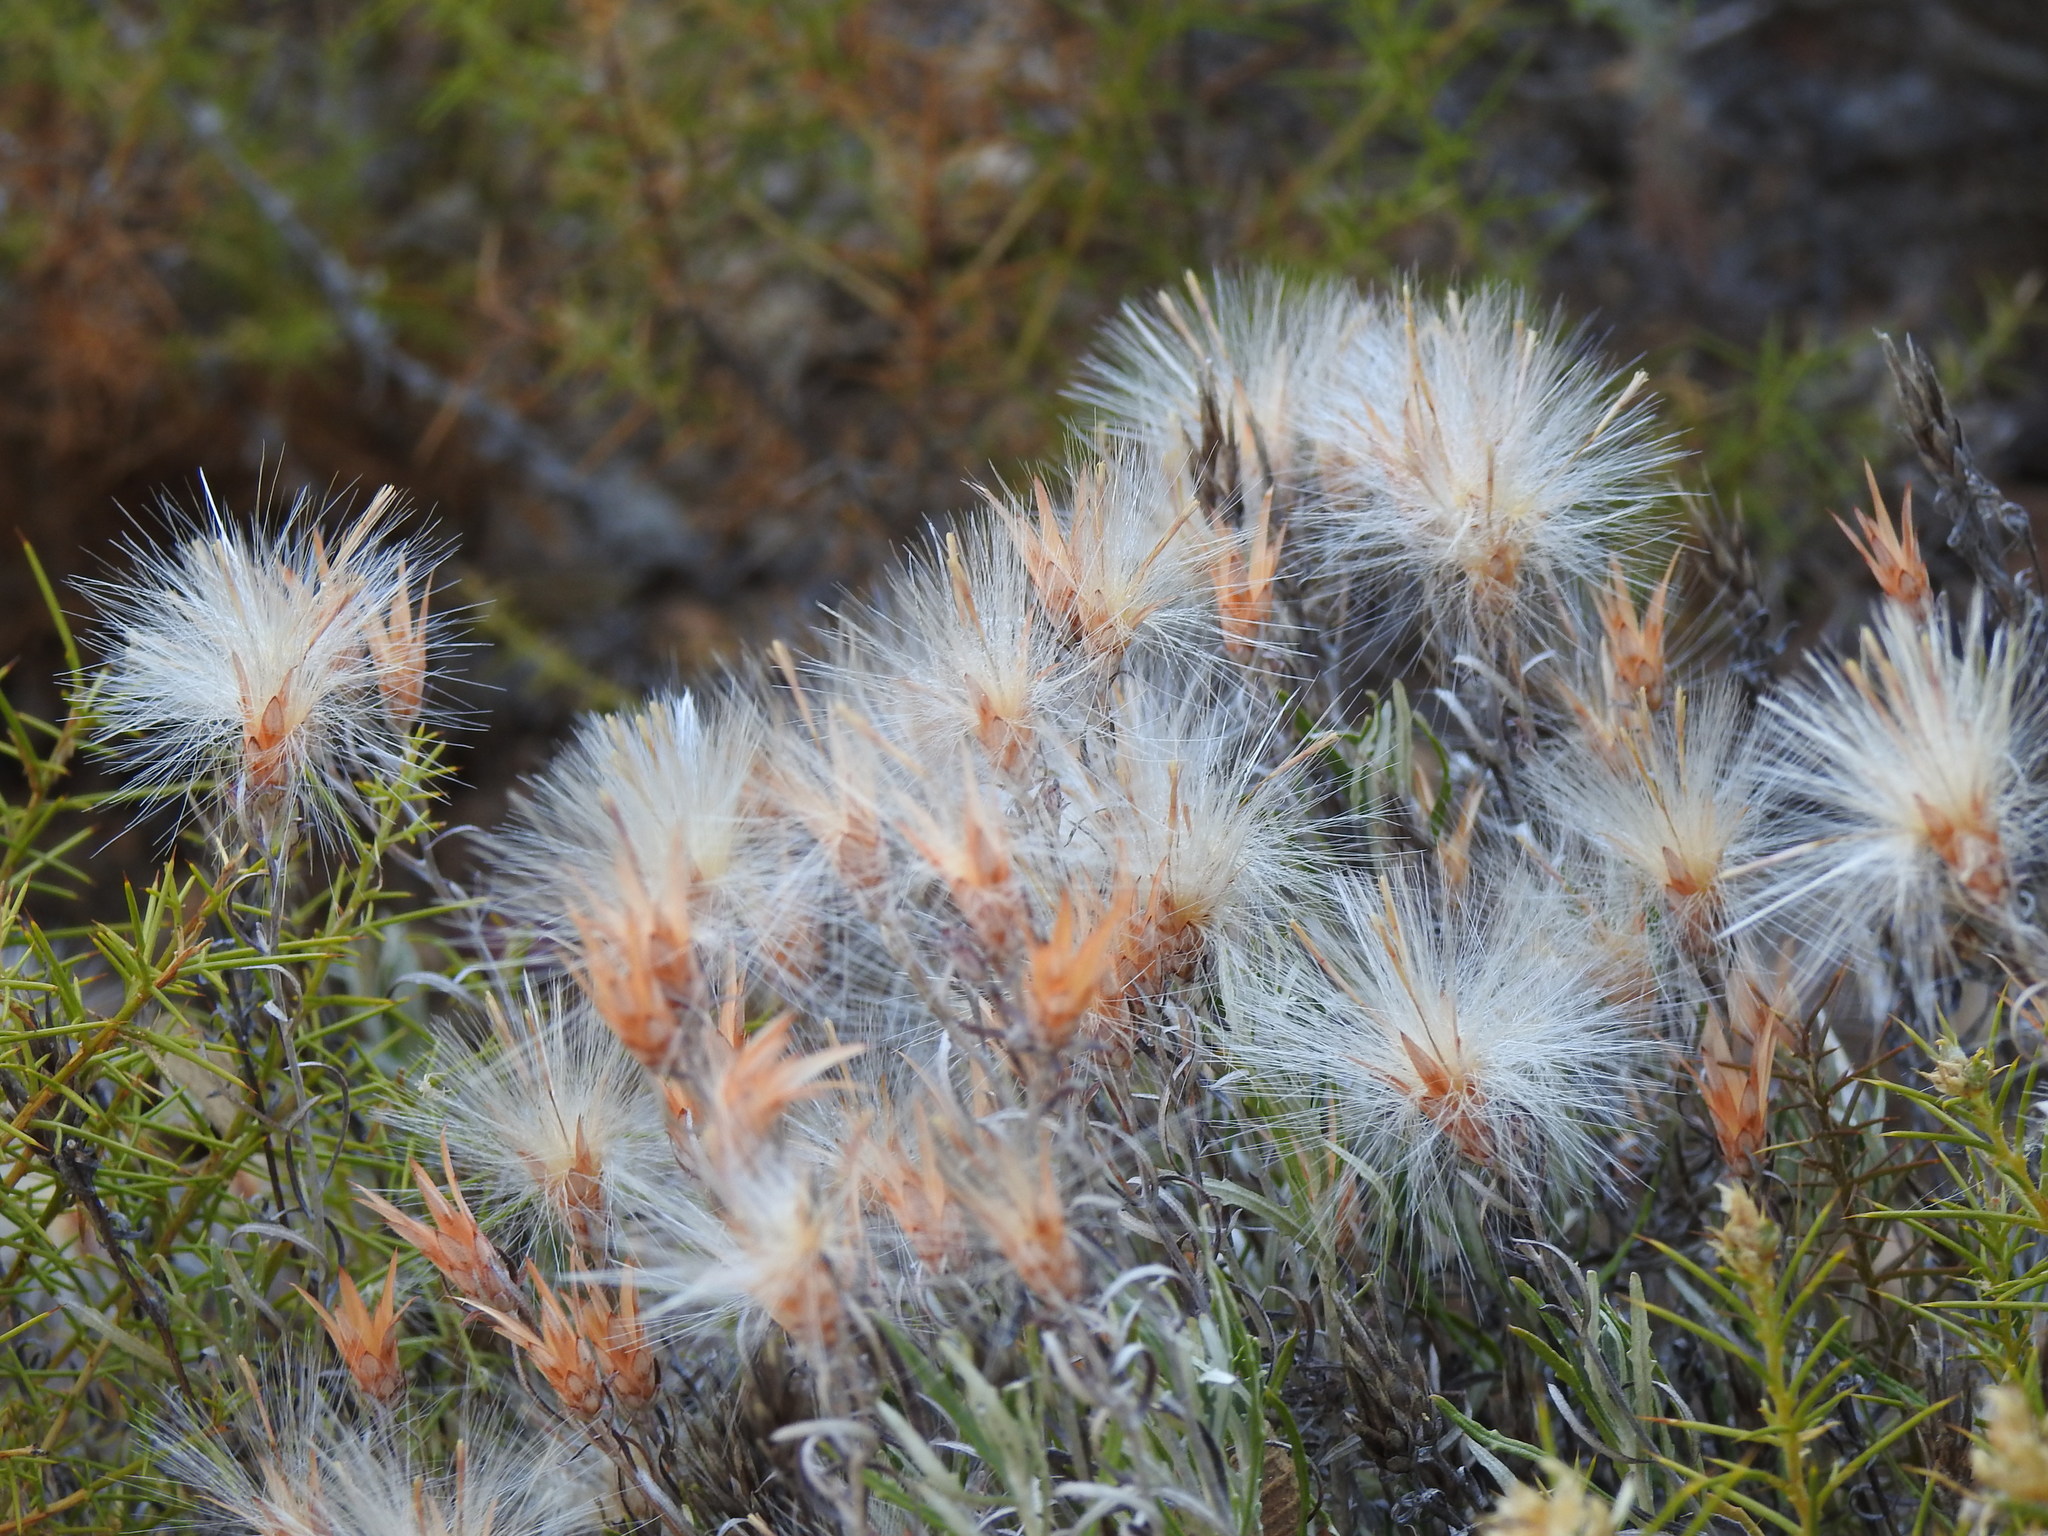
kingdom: Plantae
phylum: Tracheophyta
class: Magnoliopsida
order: Asterales
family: Asteraceae
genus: Staehelina
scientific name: Staehelina dubia
